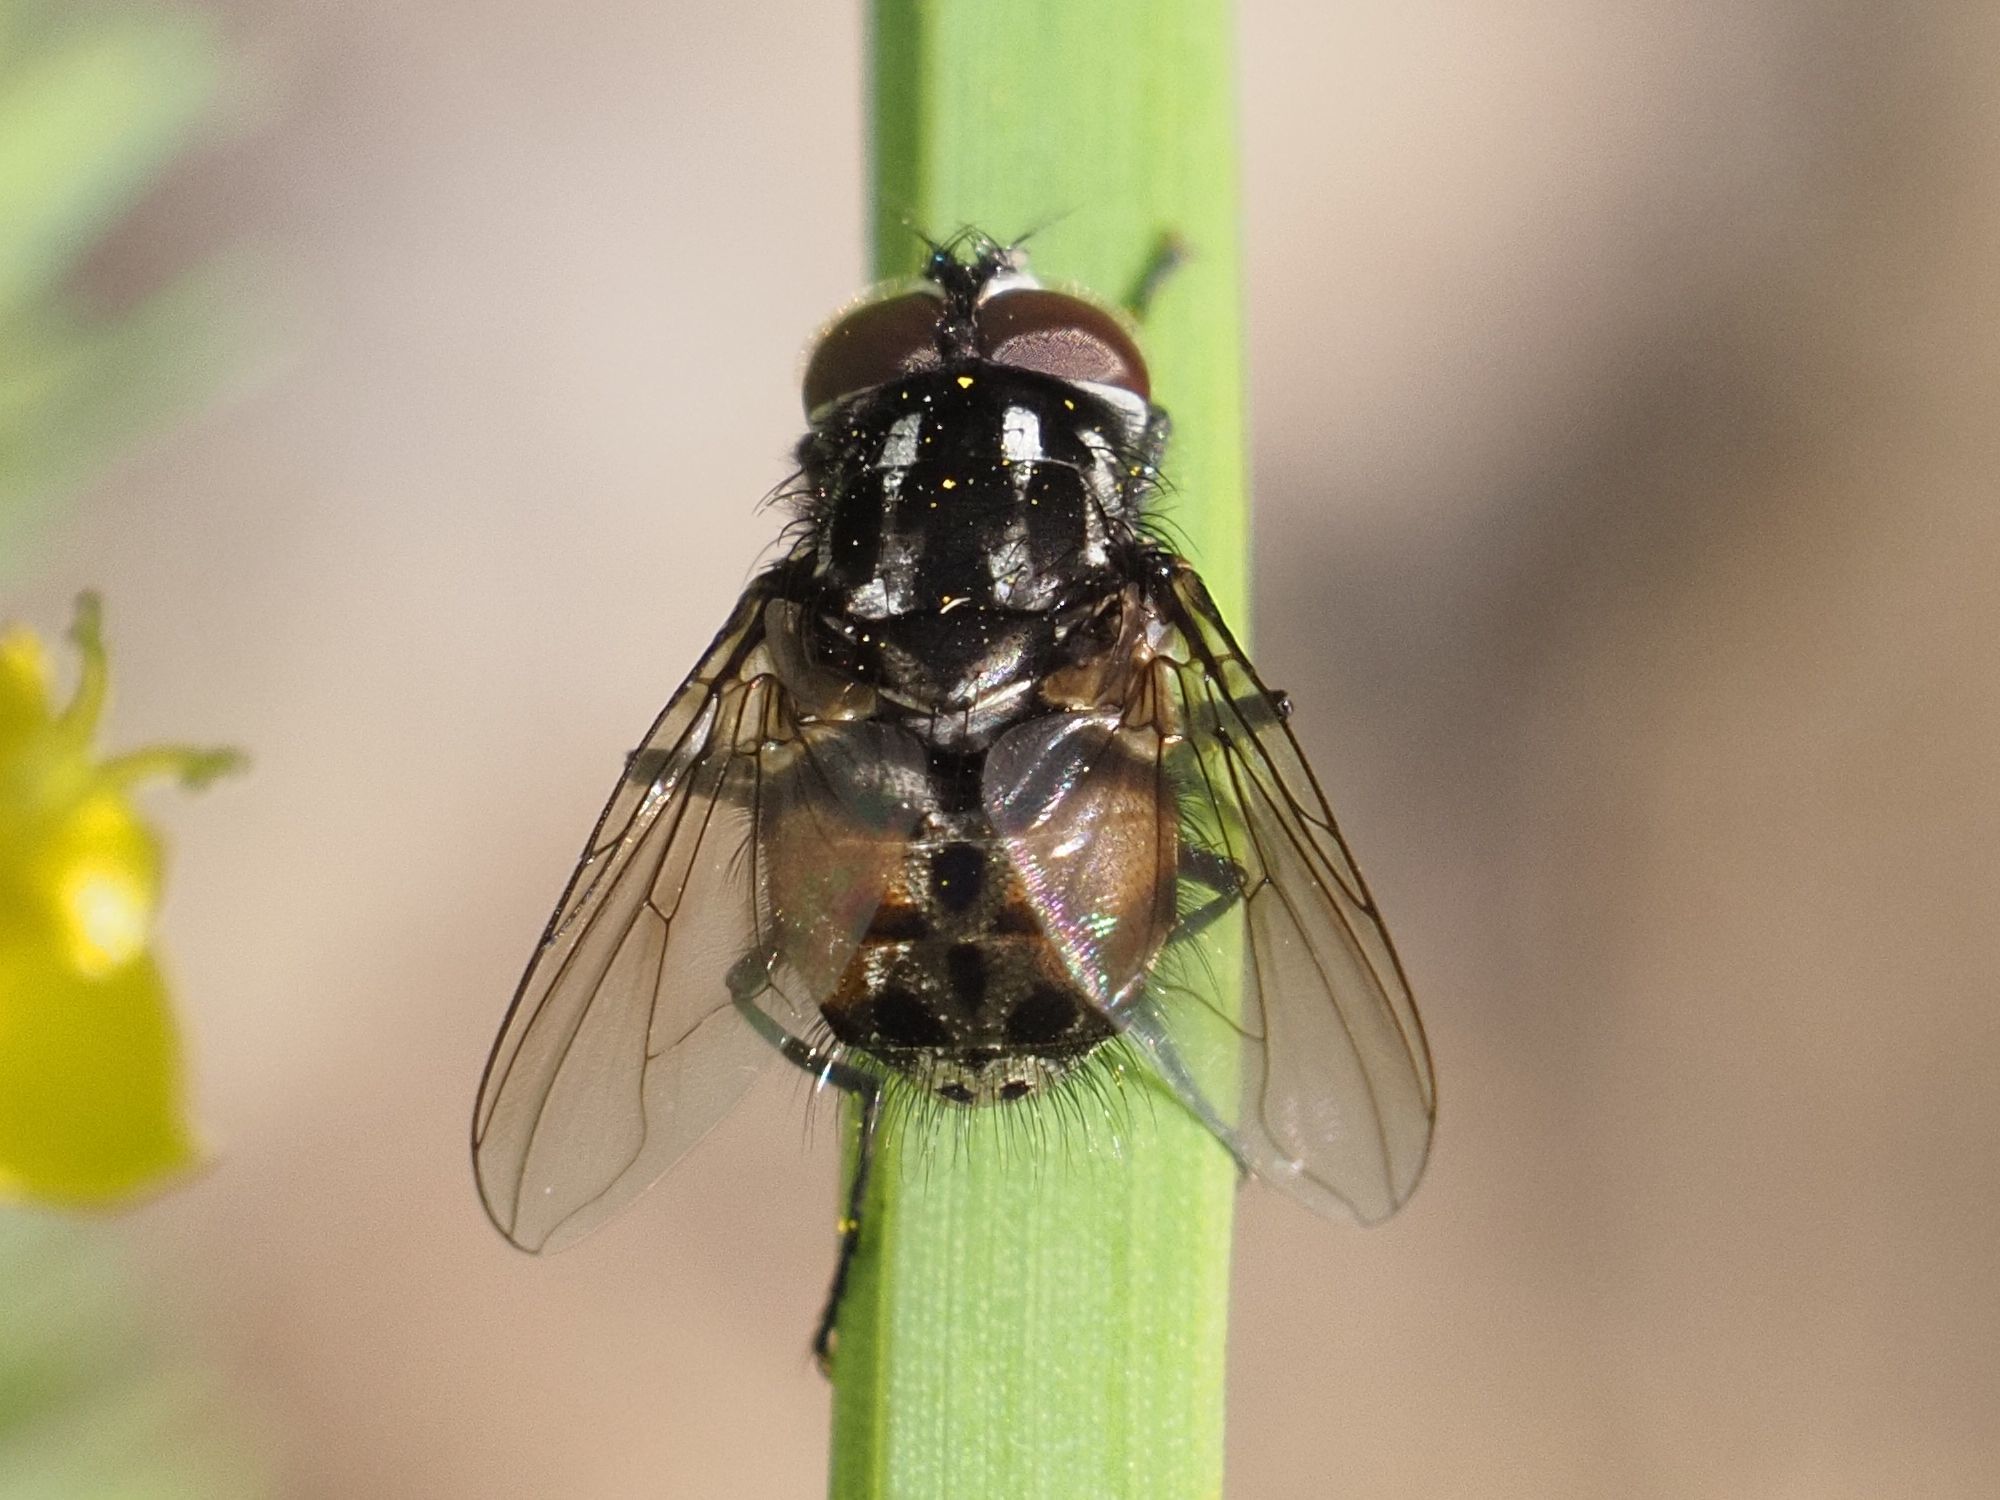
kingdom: Animalia
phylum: Arthropoda
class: Insecta
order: Diptera
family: Muscidae
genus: Graphomya
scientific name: Graphomya maculata
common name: Muscid fly
